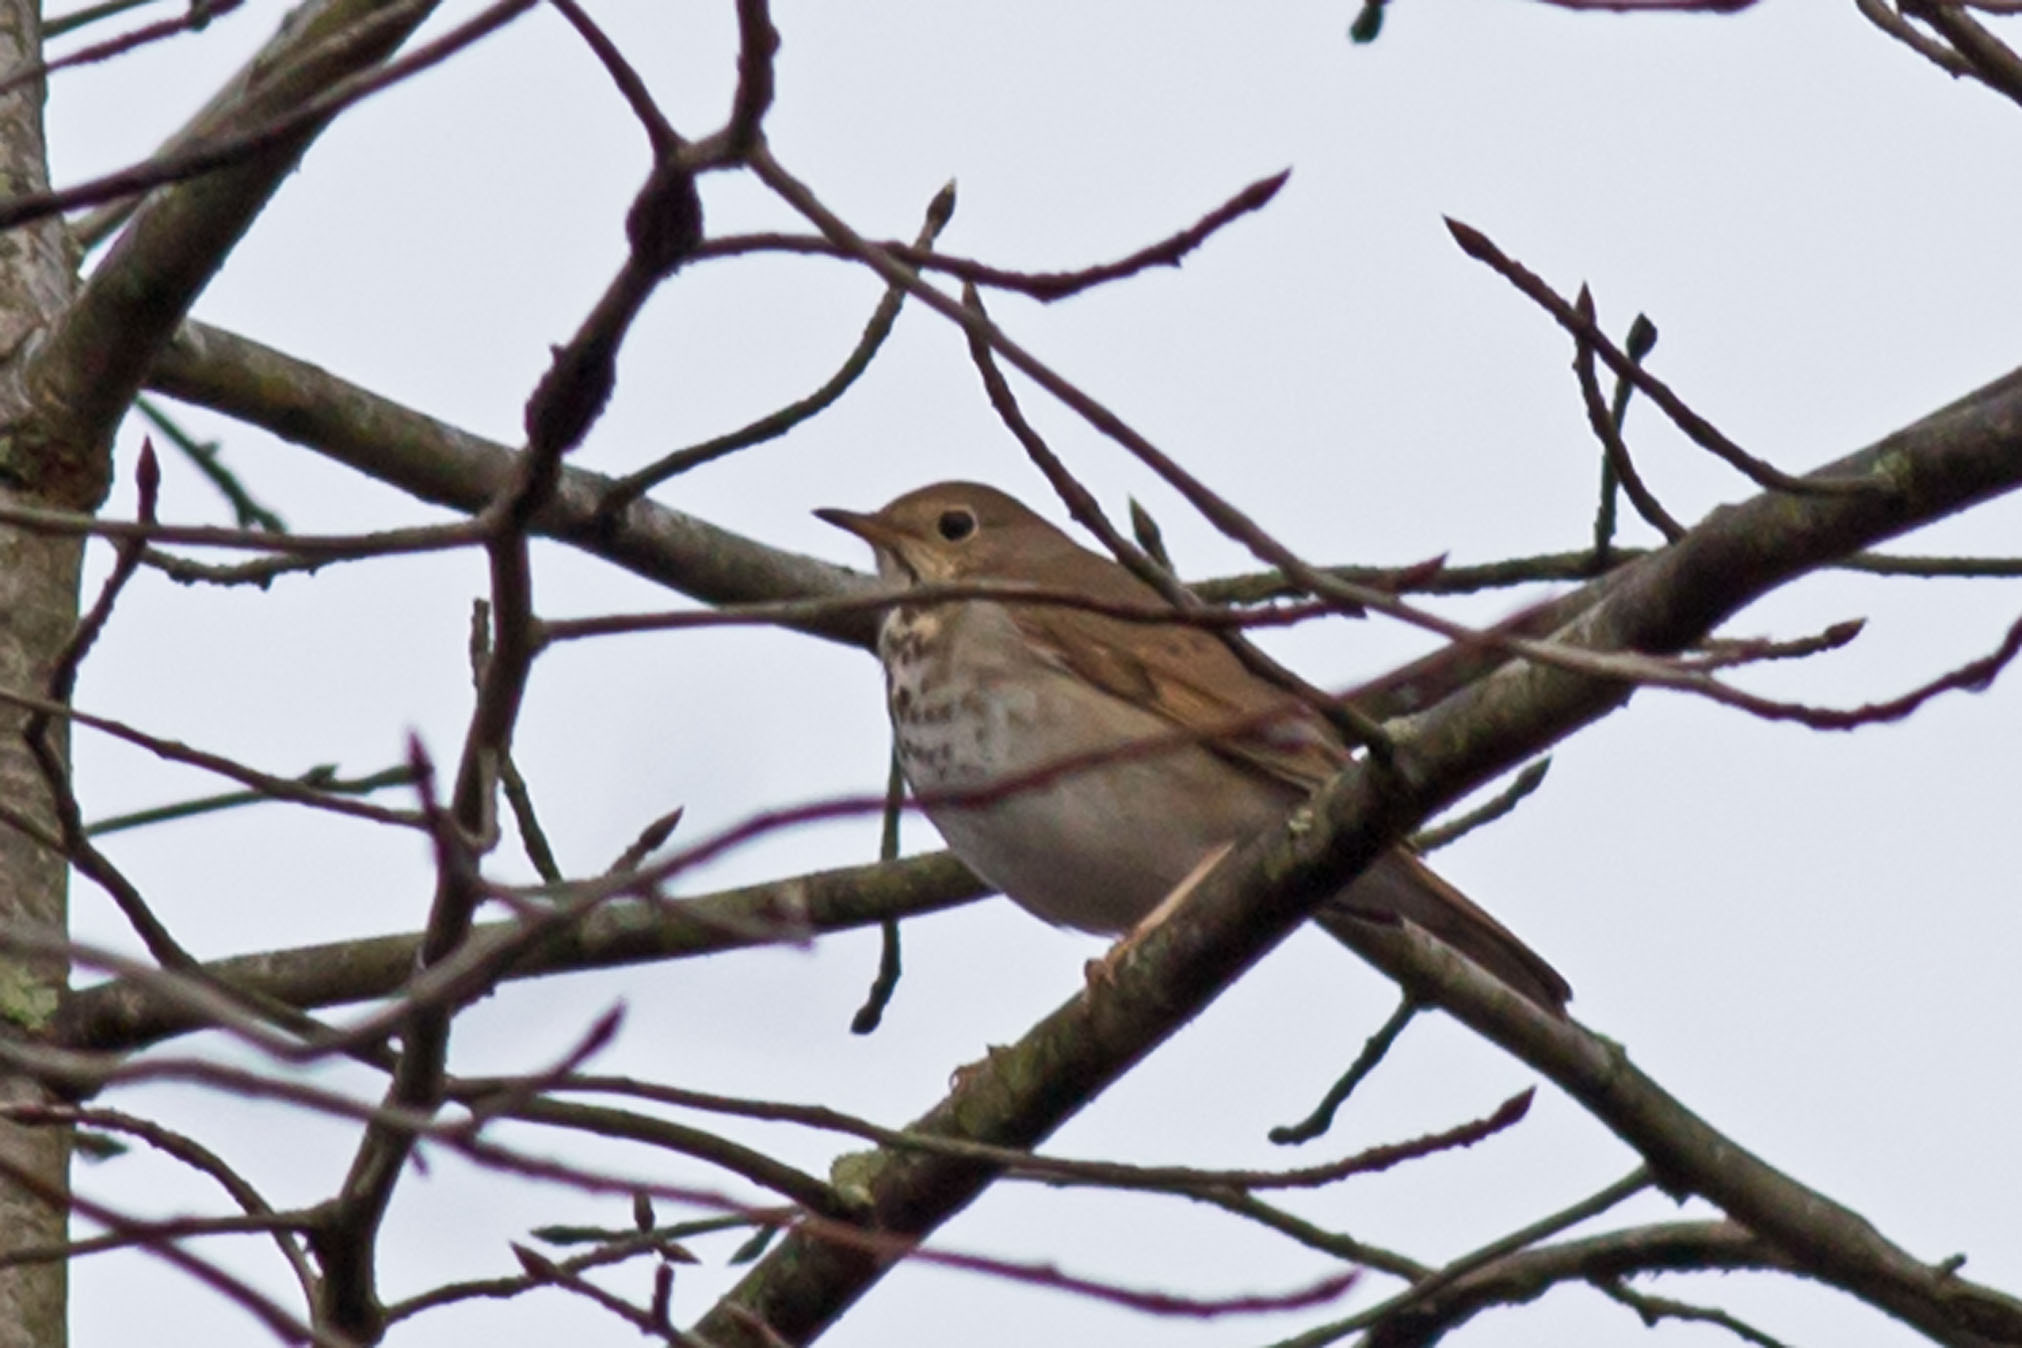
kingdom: Animalia
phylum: Chordata
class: Aves
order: Passeriformes
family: Turdidae
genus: Catharus
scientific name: Catharus guttatus
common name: Hermit thrush
